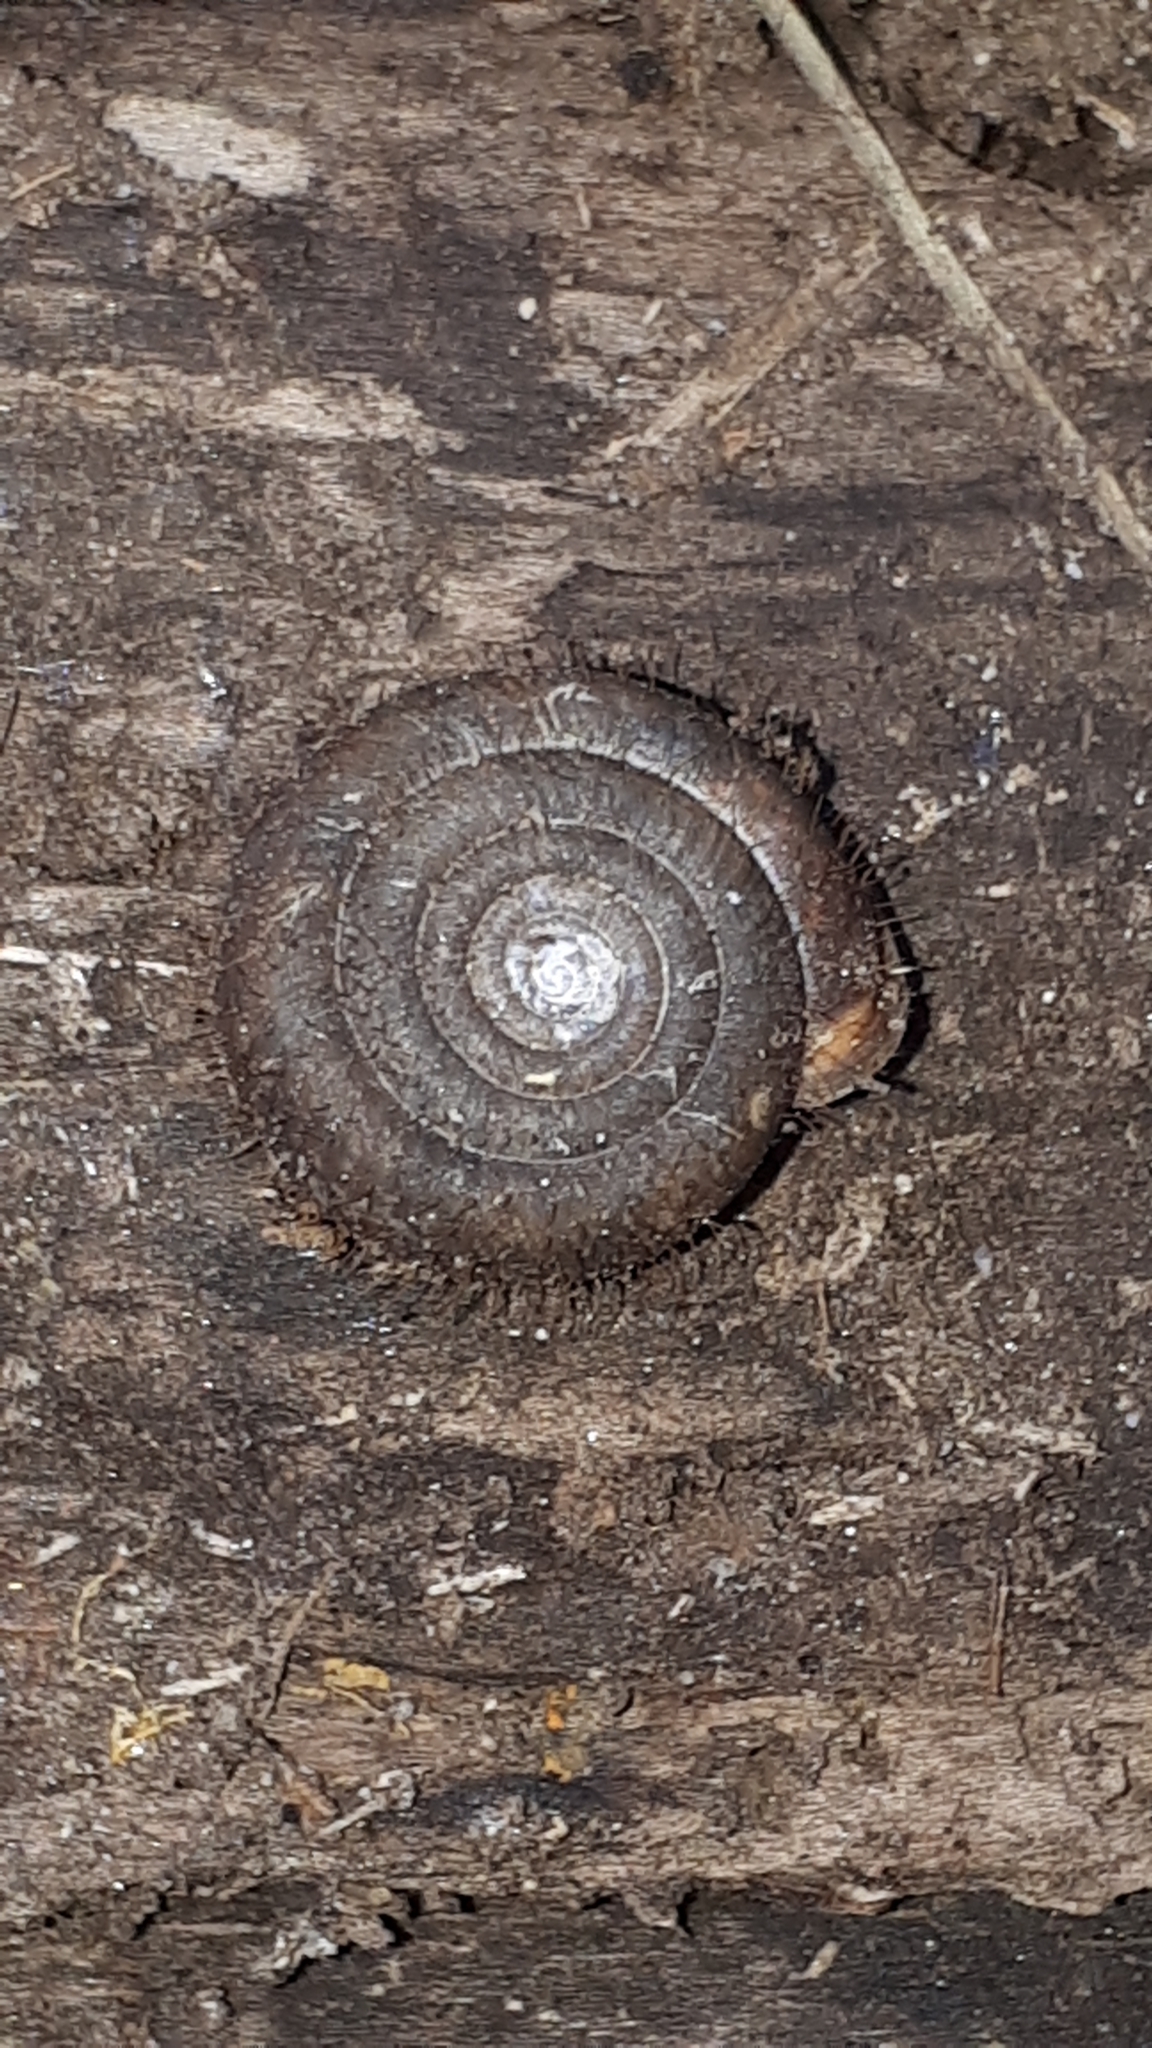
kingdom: Animalia
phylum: Mollusca
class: Gastropoda
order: Stylommatophora
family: Helicodontidae
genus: Helicodonta
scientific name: Helicodonta obvoluta
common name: Cheese snail
